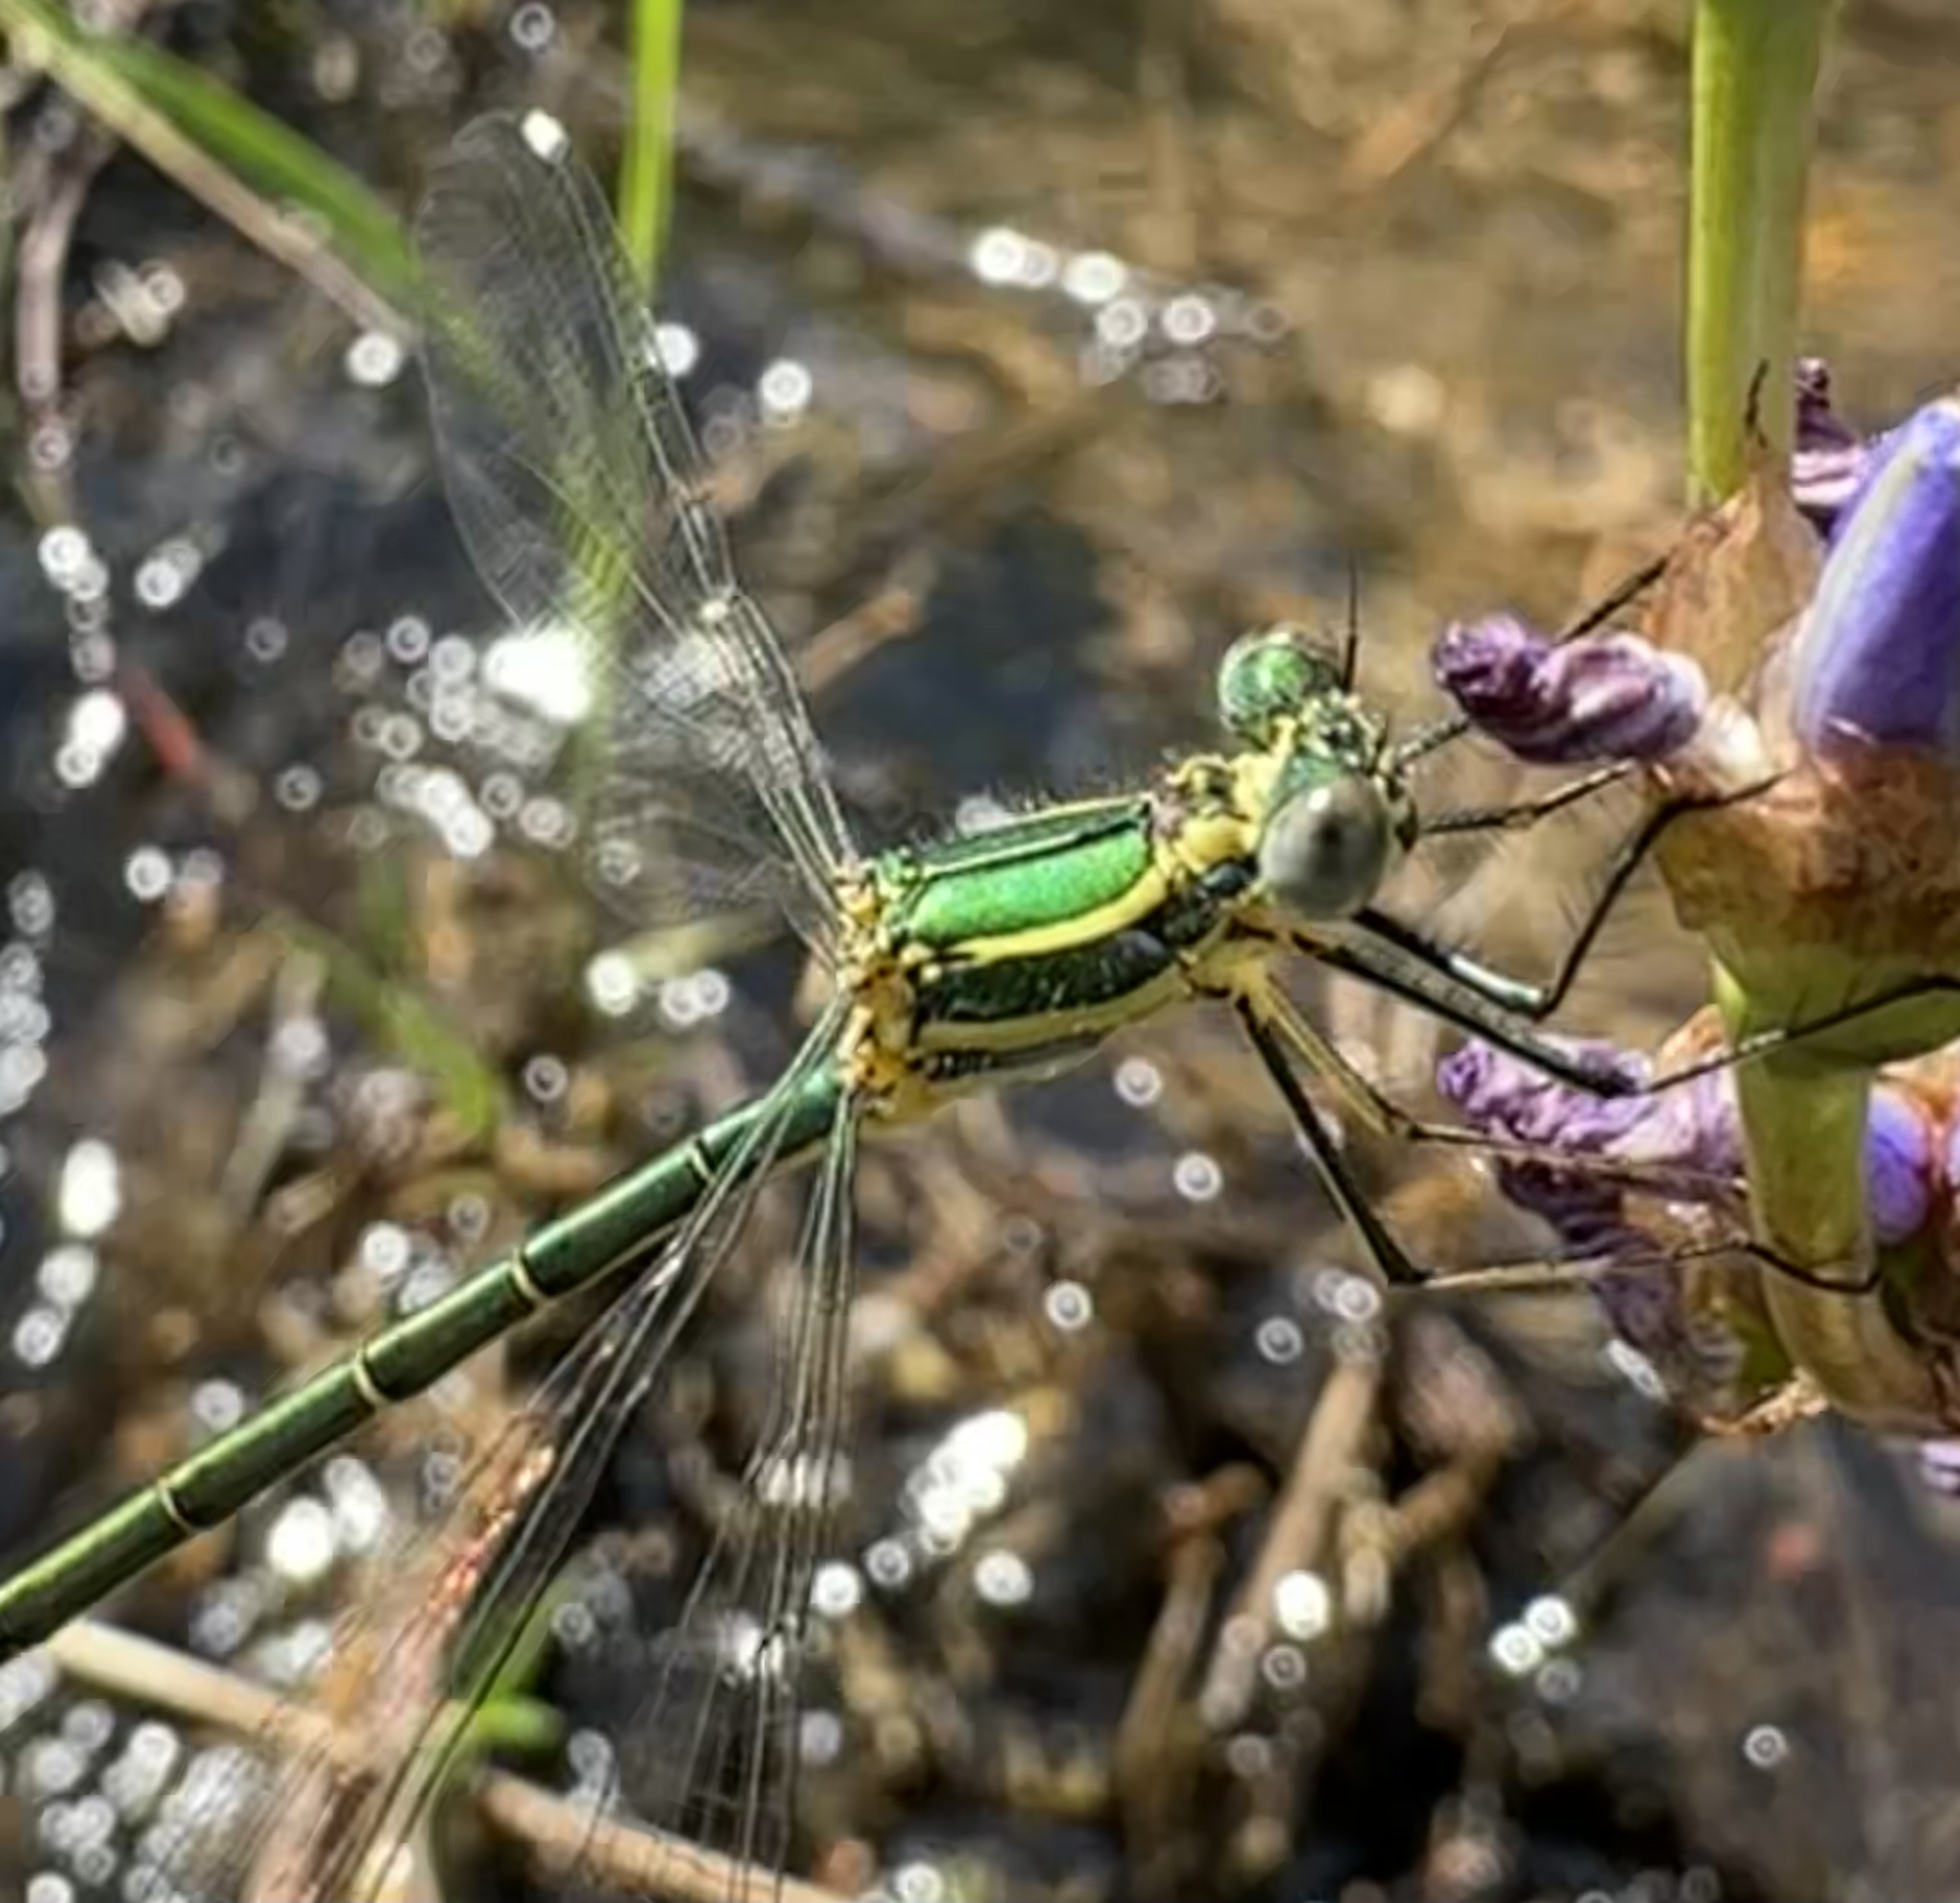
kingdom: Animalia
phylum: Arthropoda
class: Insecta
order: Odonata
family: Synlestidae
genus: Chlorolestes
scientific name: Chlorolestes fasciatus
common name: Mountain malachite
